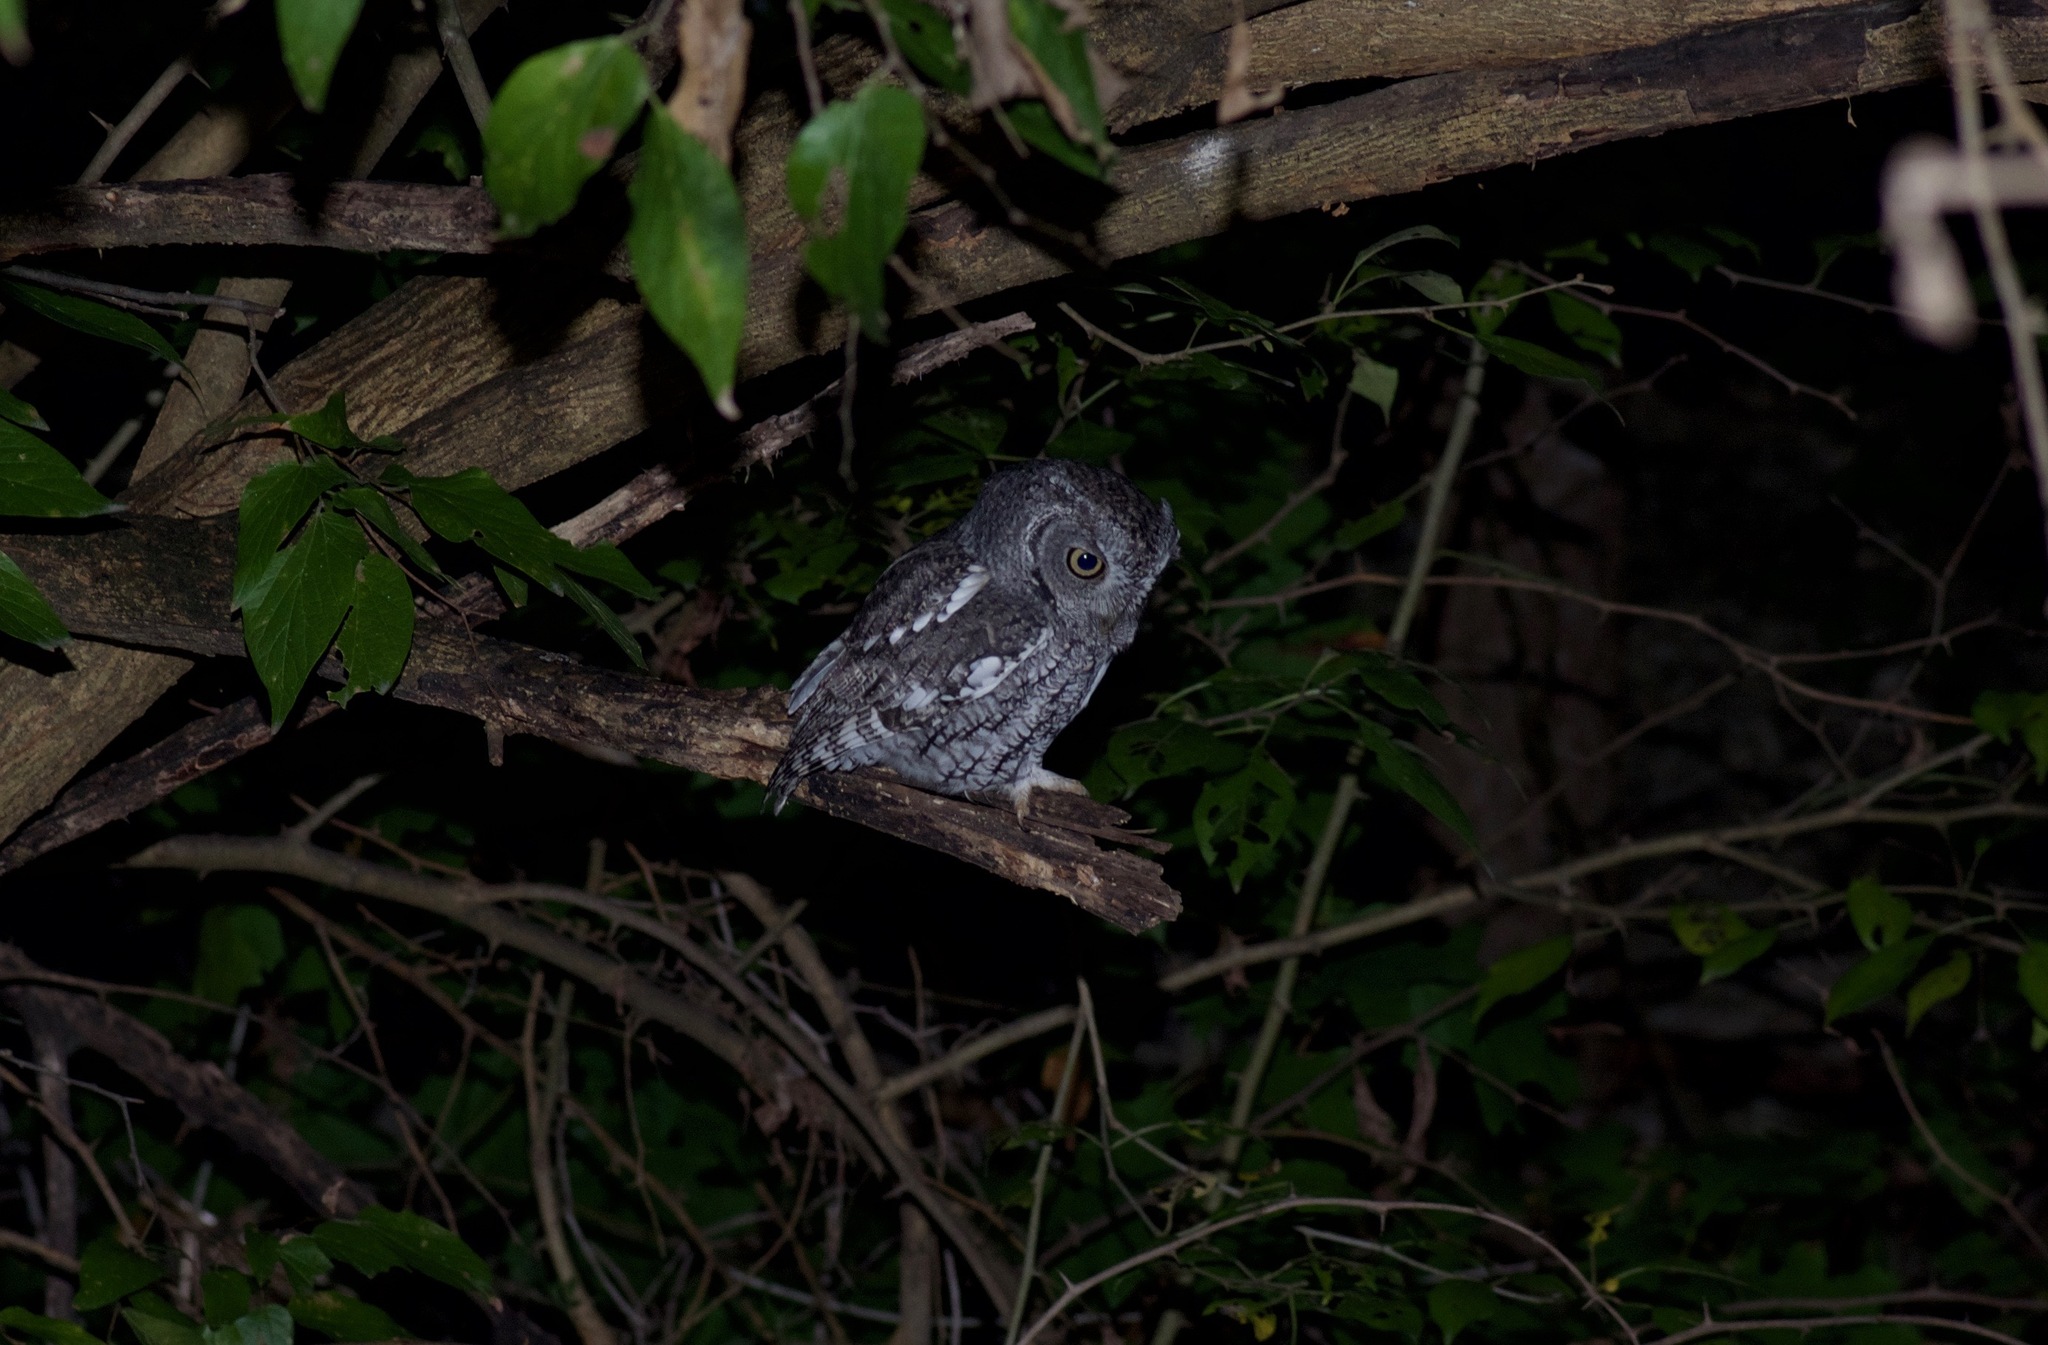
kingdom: Animalia
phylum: Chordata
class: Aves
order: Strigiformes
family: Strigidae
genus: Megascops
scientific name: Megascops asio
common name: Eastern screech-owl
